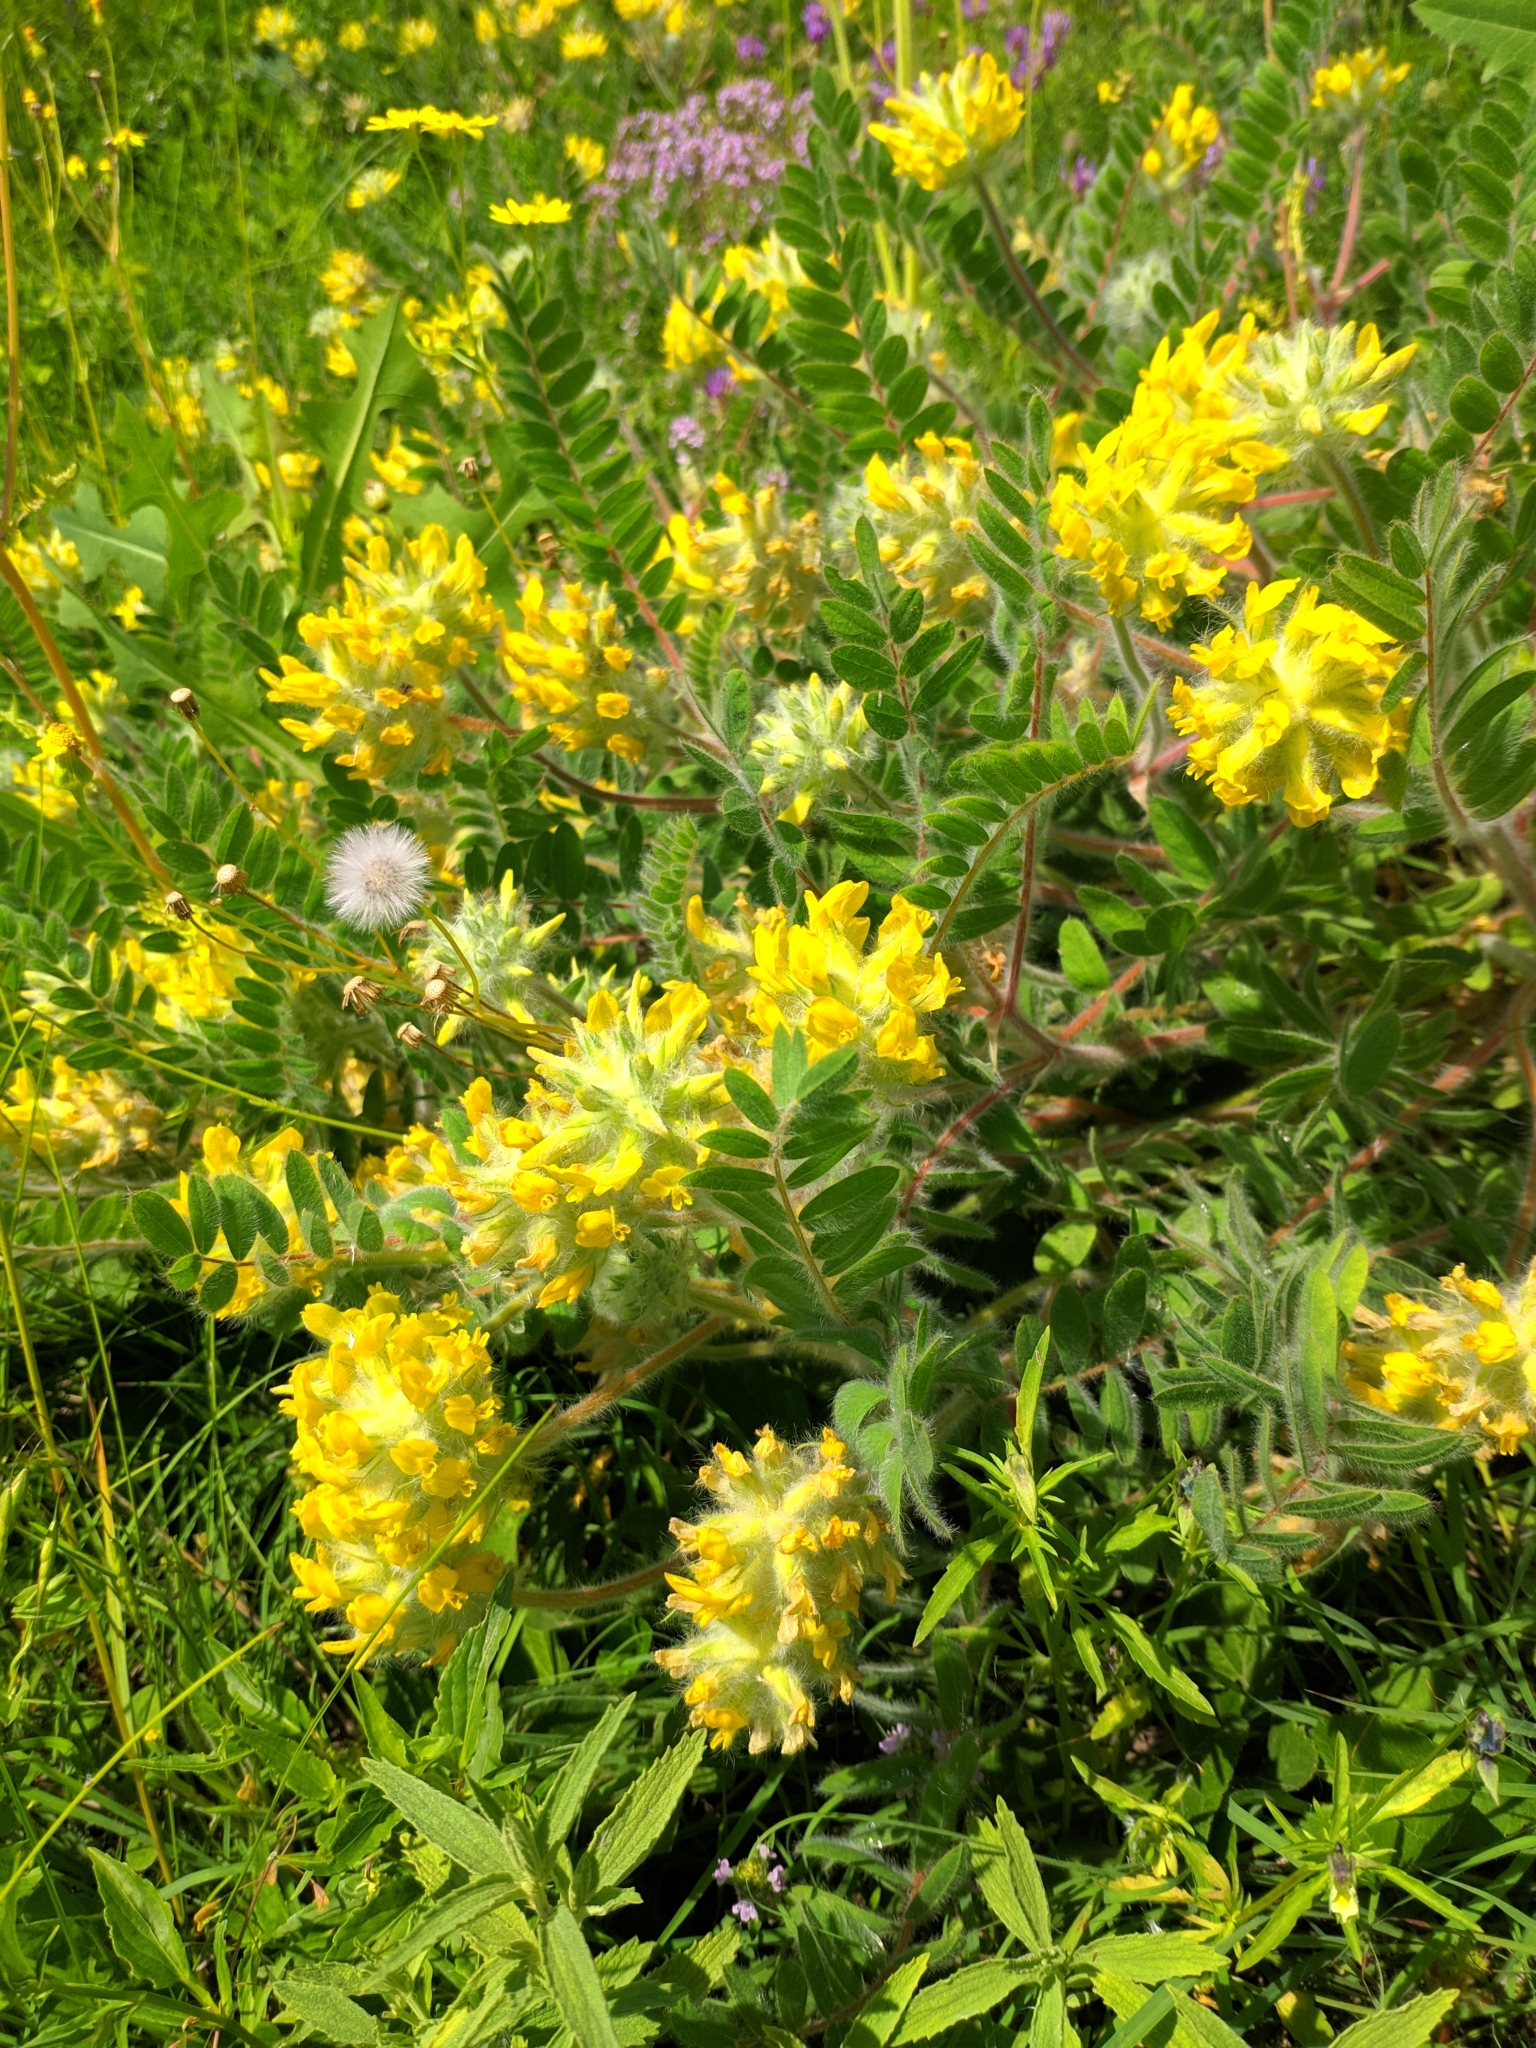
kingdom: Plantae
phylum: Tracheophyta
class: Magnoliopsida
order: Fabales
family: Fabaceae
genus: Astragalus
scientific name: Astragalus dasyanthus
